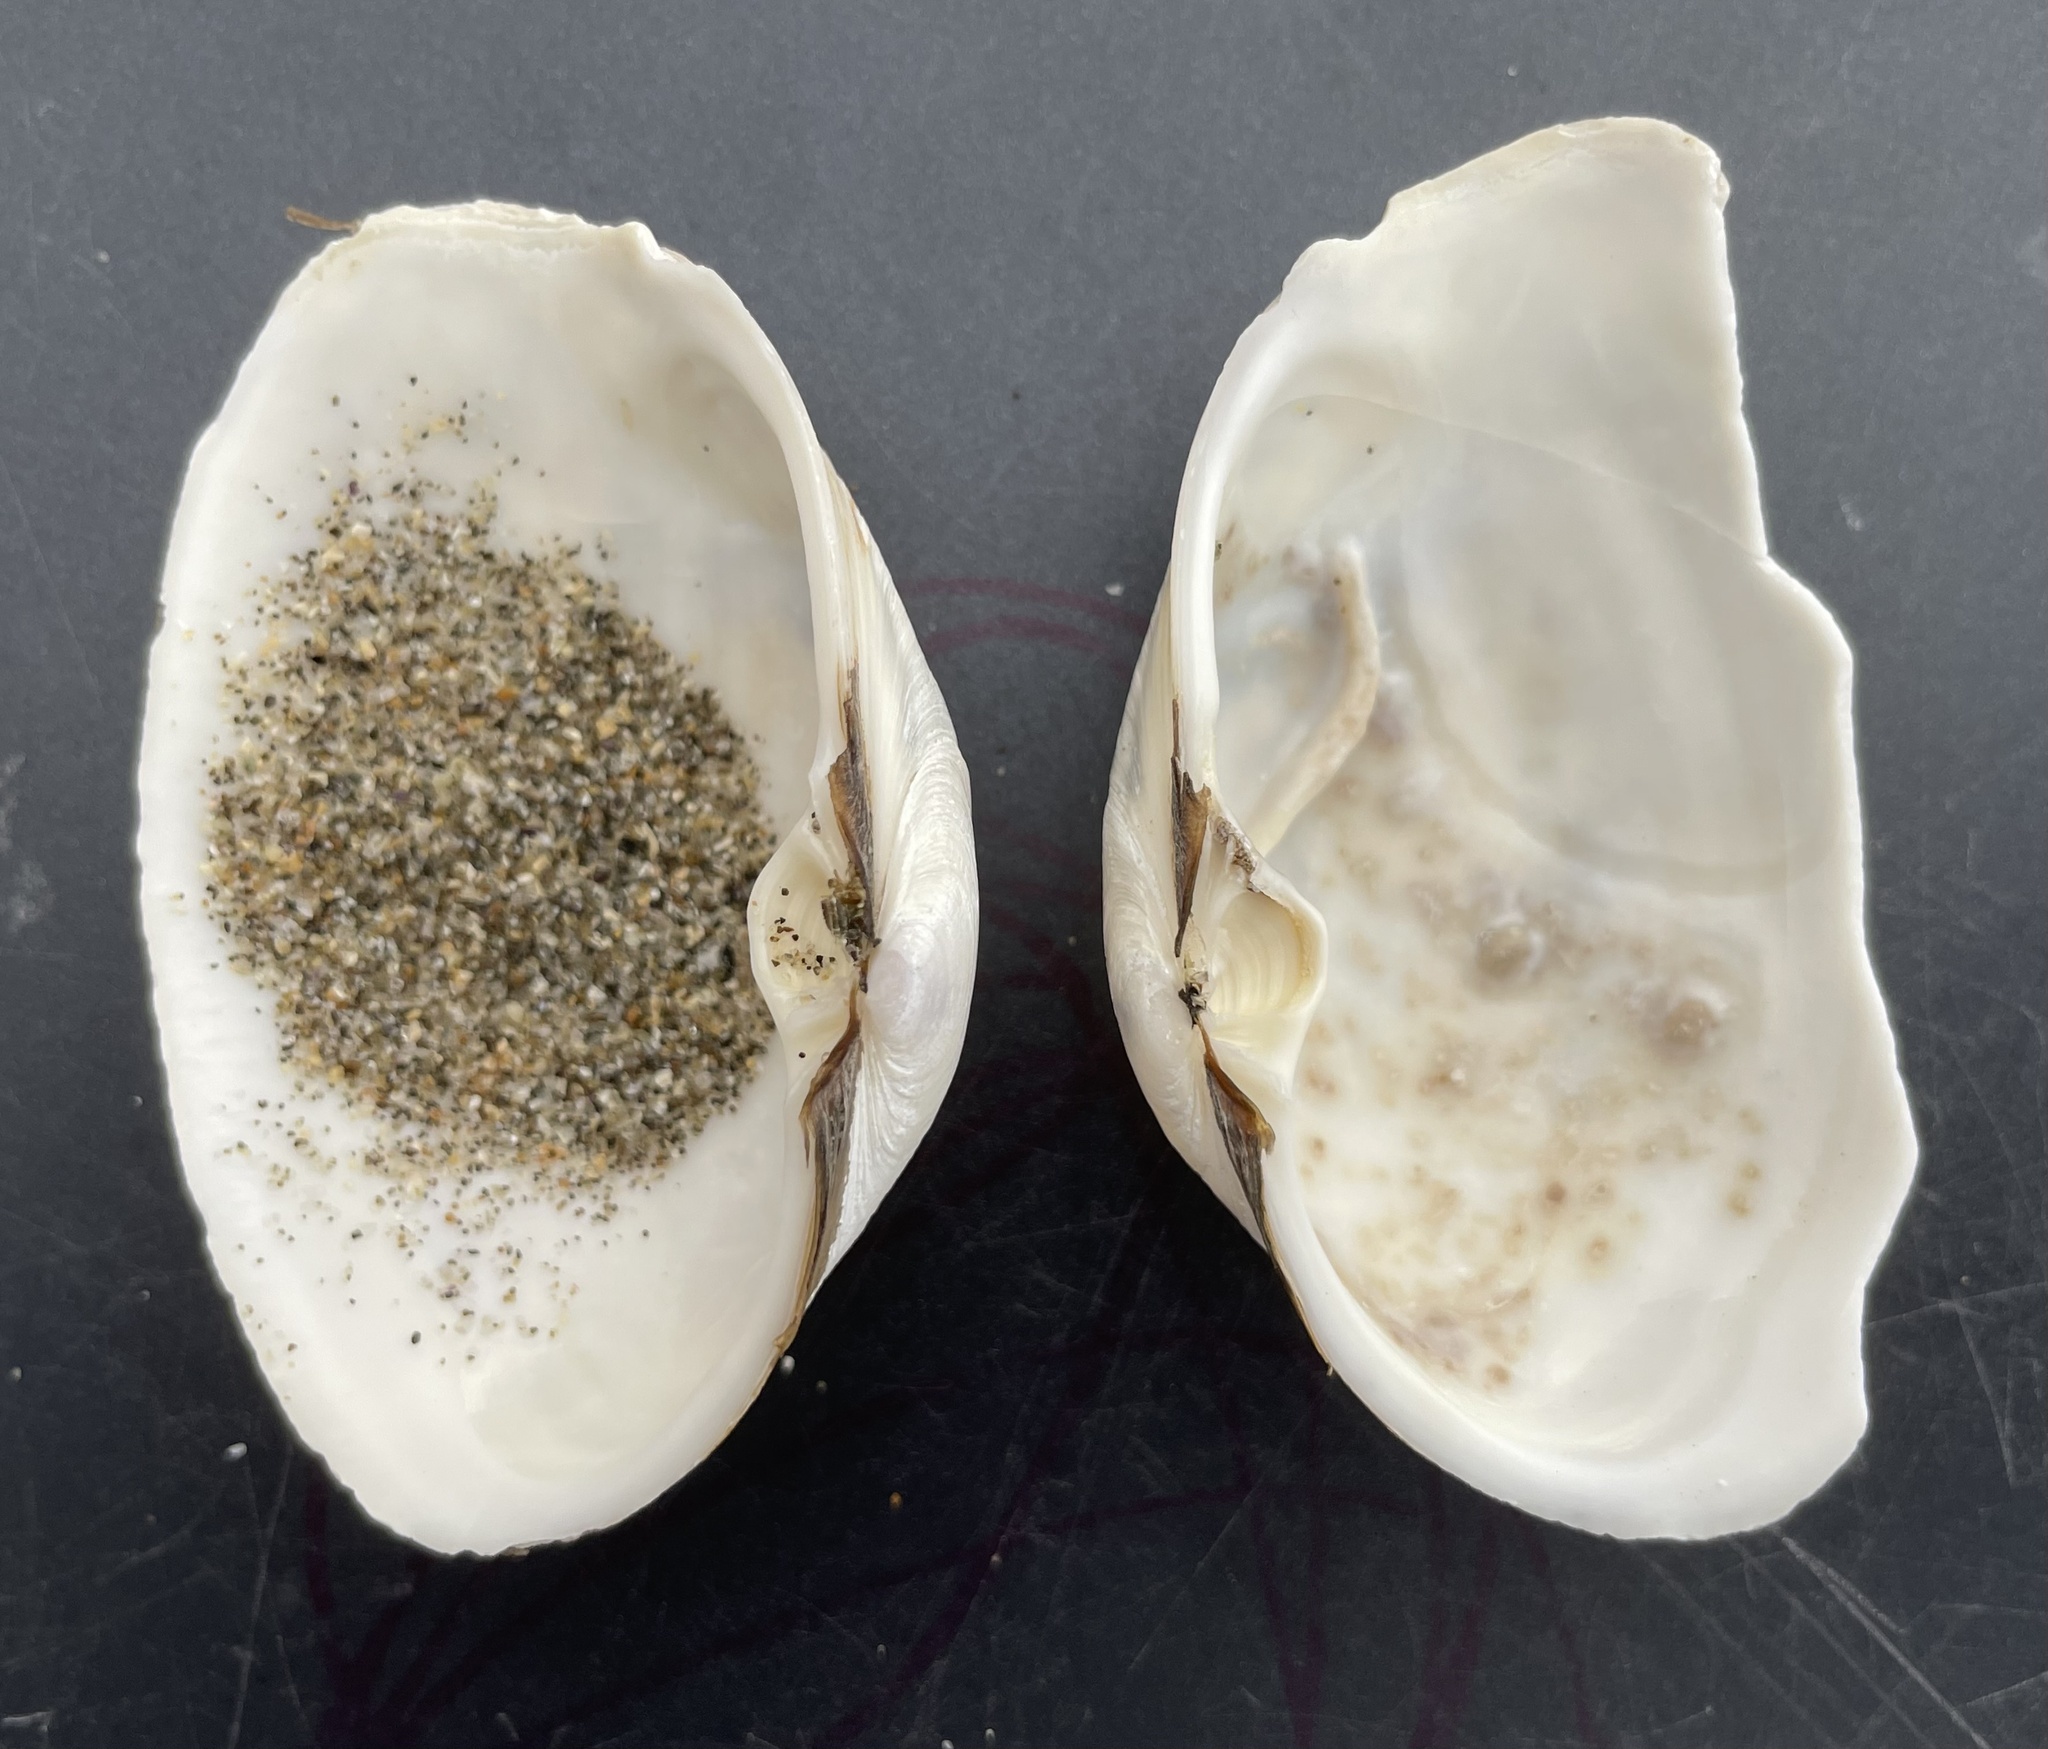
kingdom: Animalia
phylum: Mollusca
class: Bivalvia
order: Venerida
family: Mactridae
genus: Tresus
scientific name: Tresus nuttallii
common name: Pacific gaper clam
